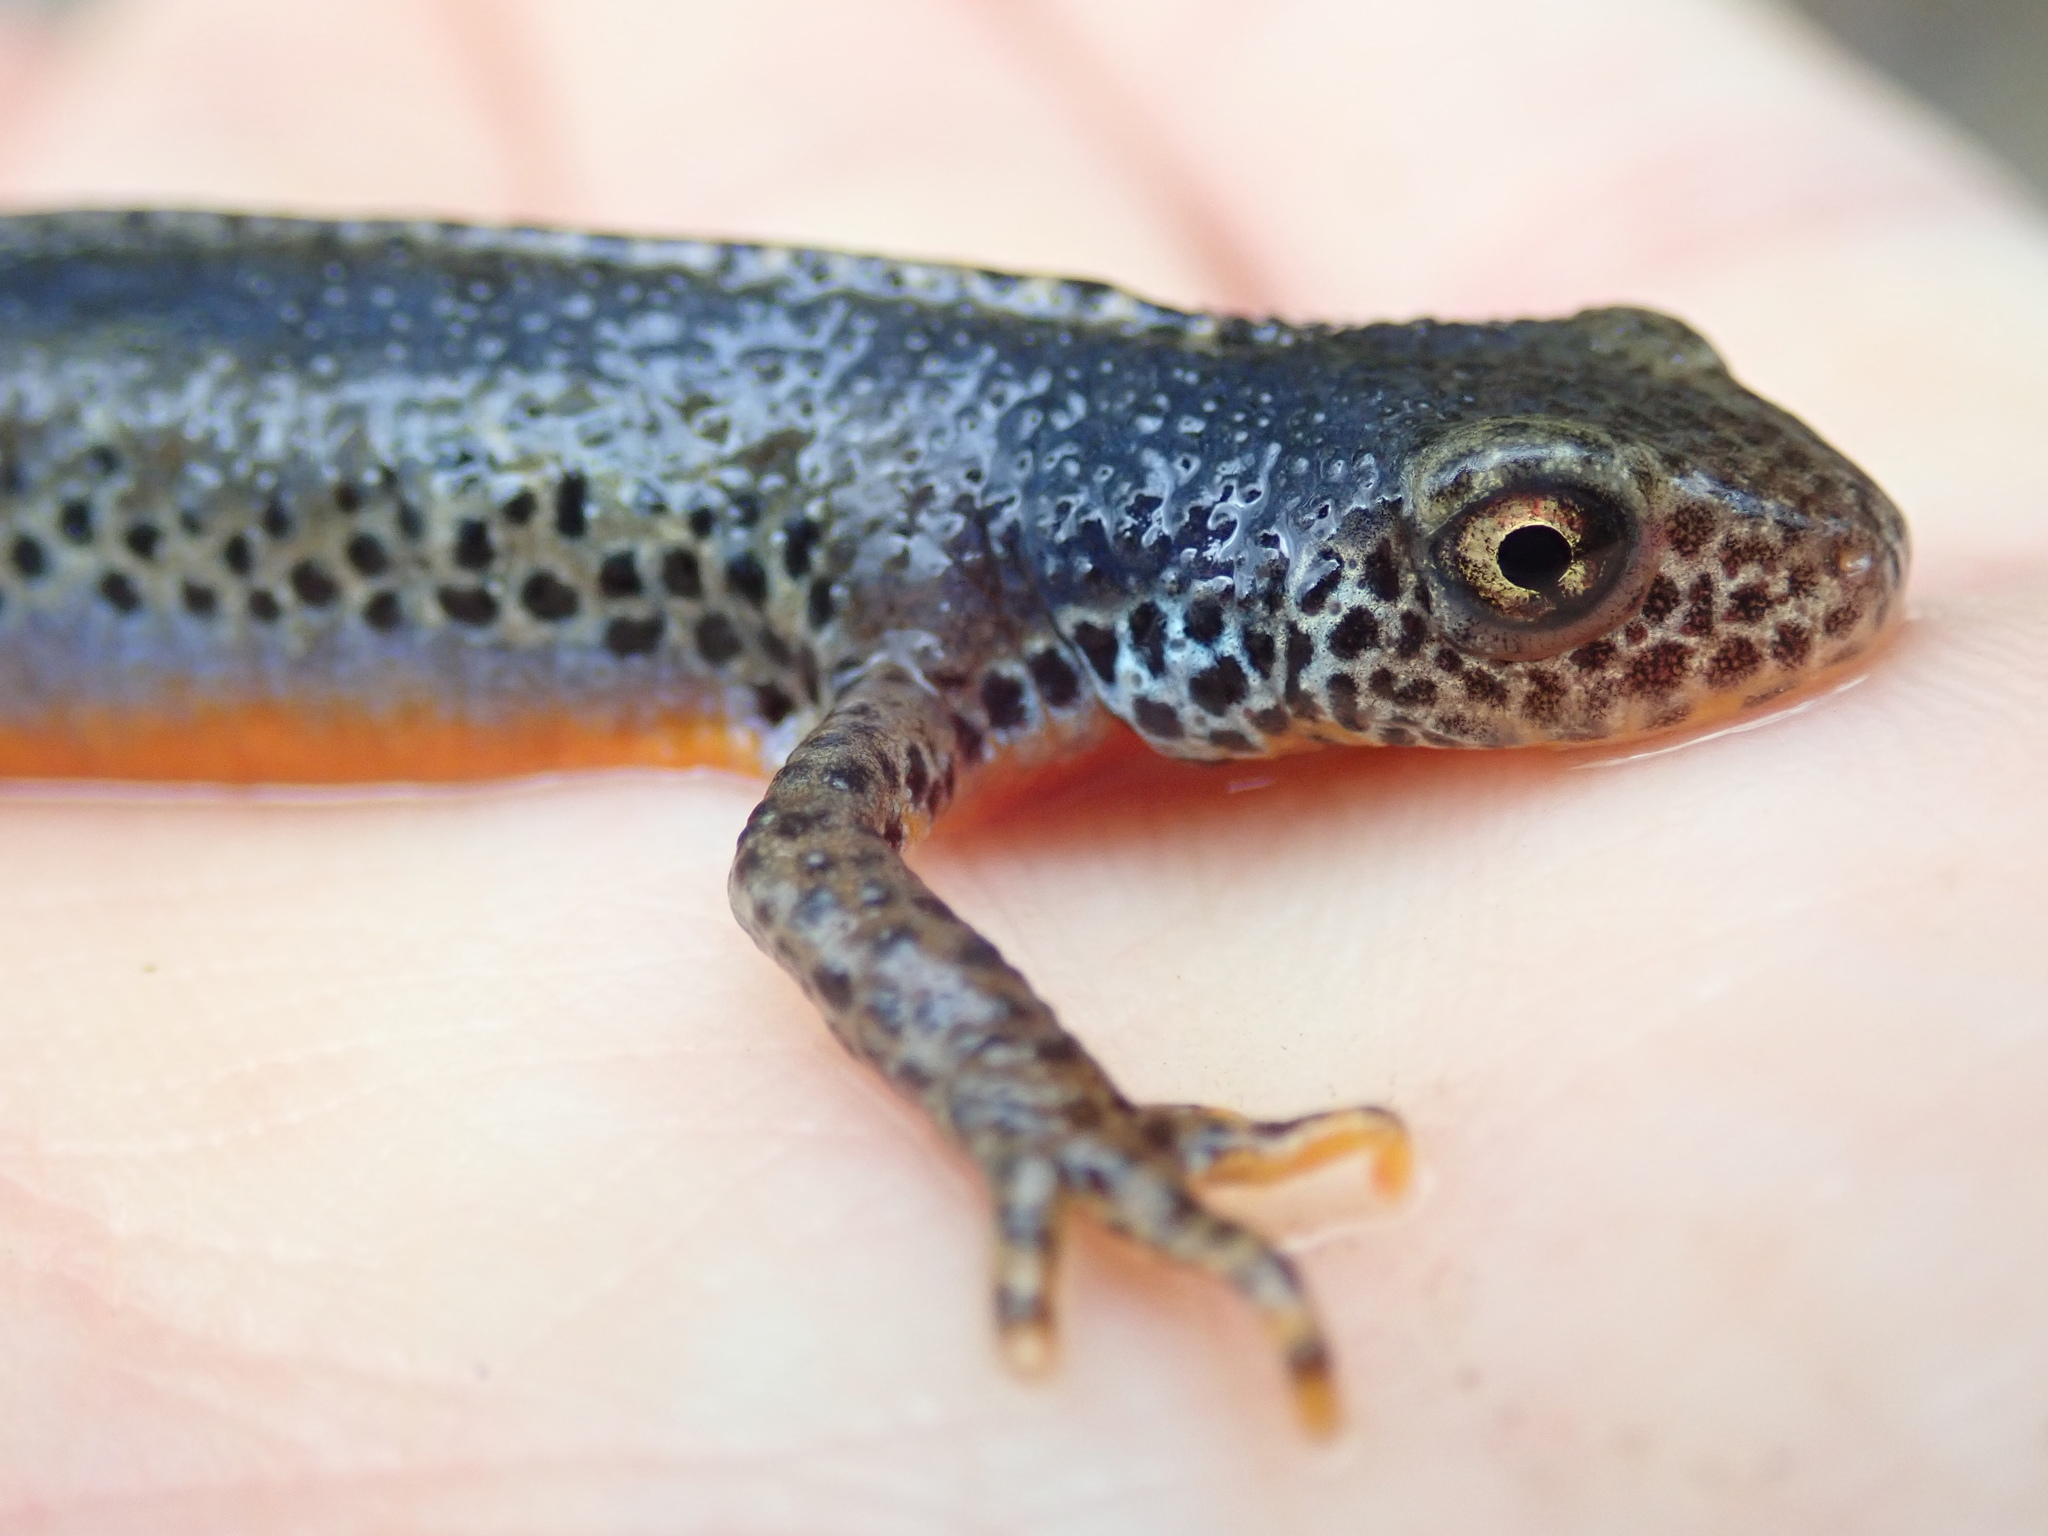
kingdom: Animalia
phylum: Chordata
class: Amphibia
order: Caudata
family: Salamandridae
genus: Ichthyosaura
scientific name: Ichthyosaura alpestris
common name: Alpine newt
